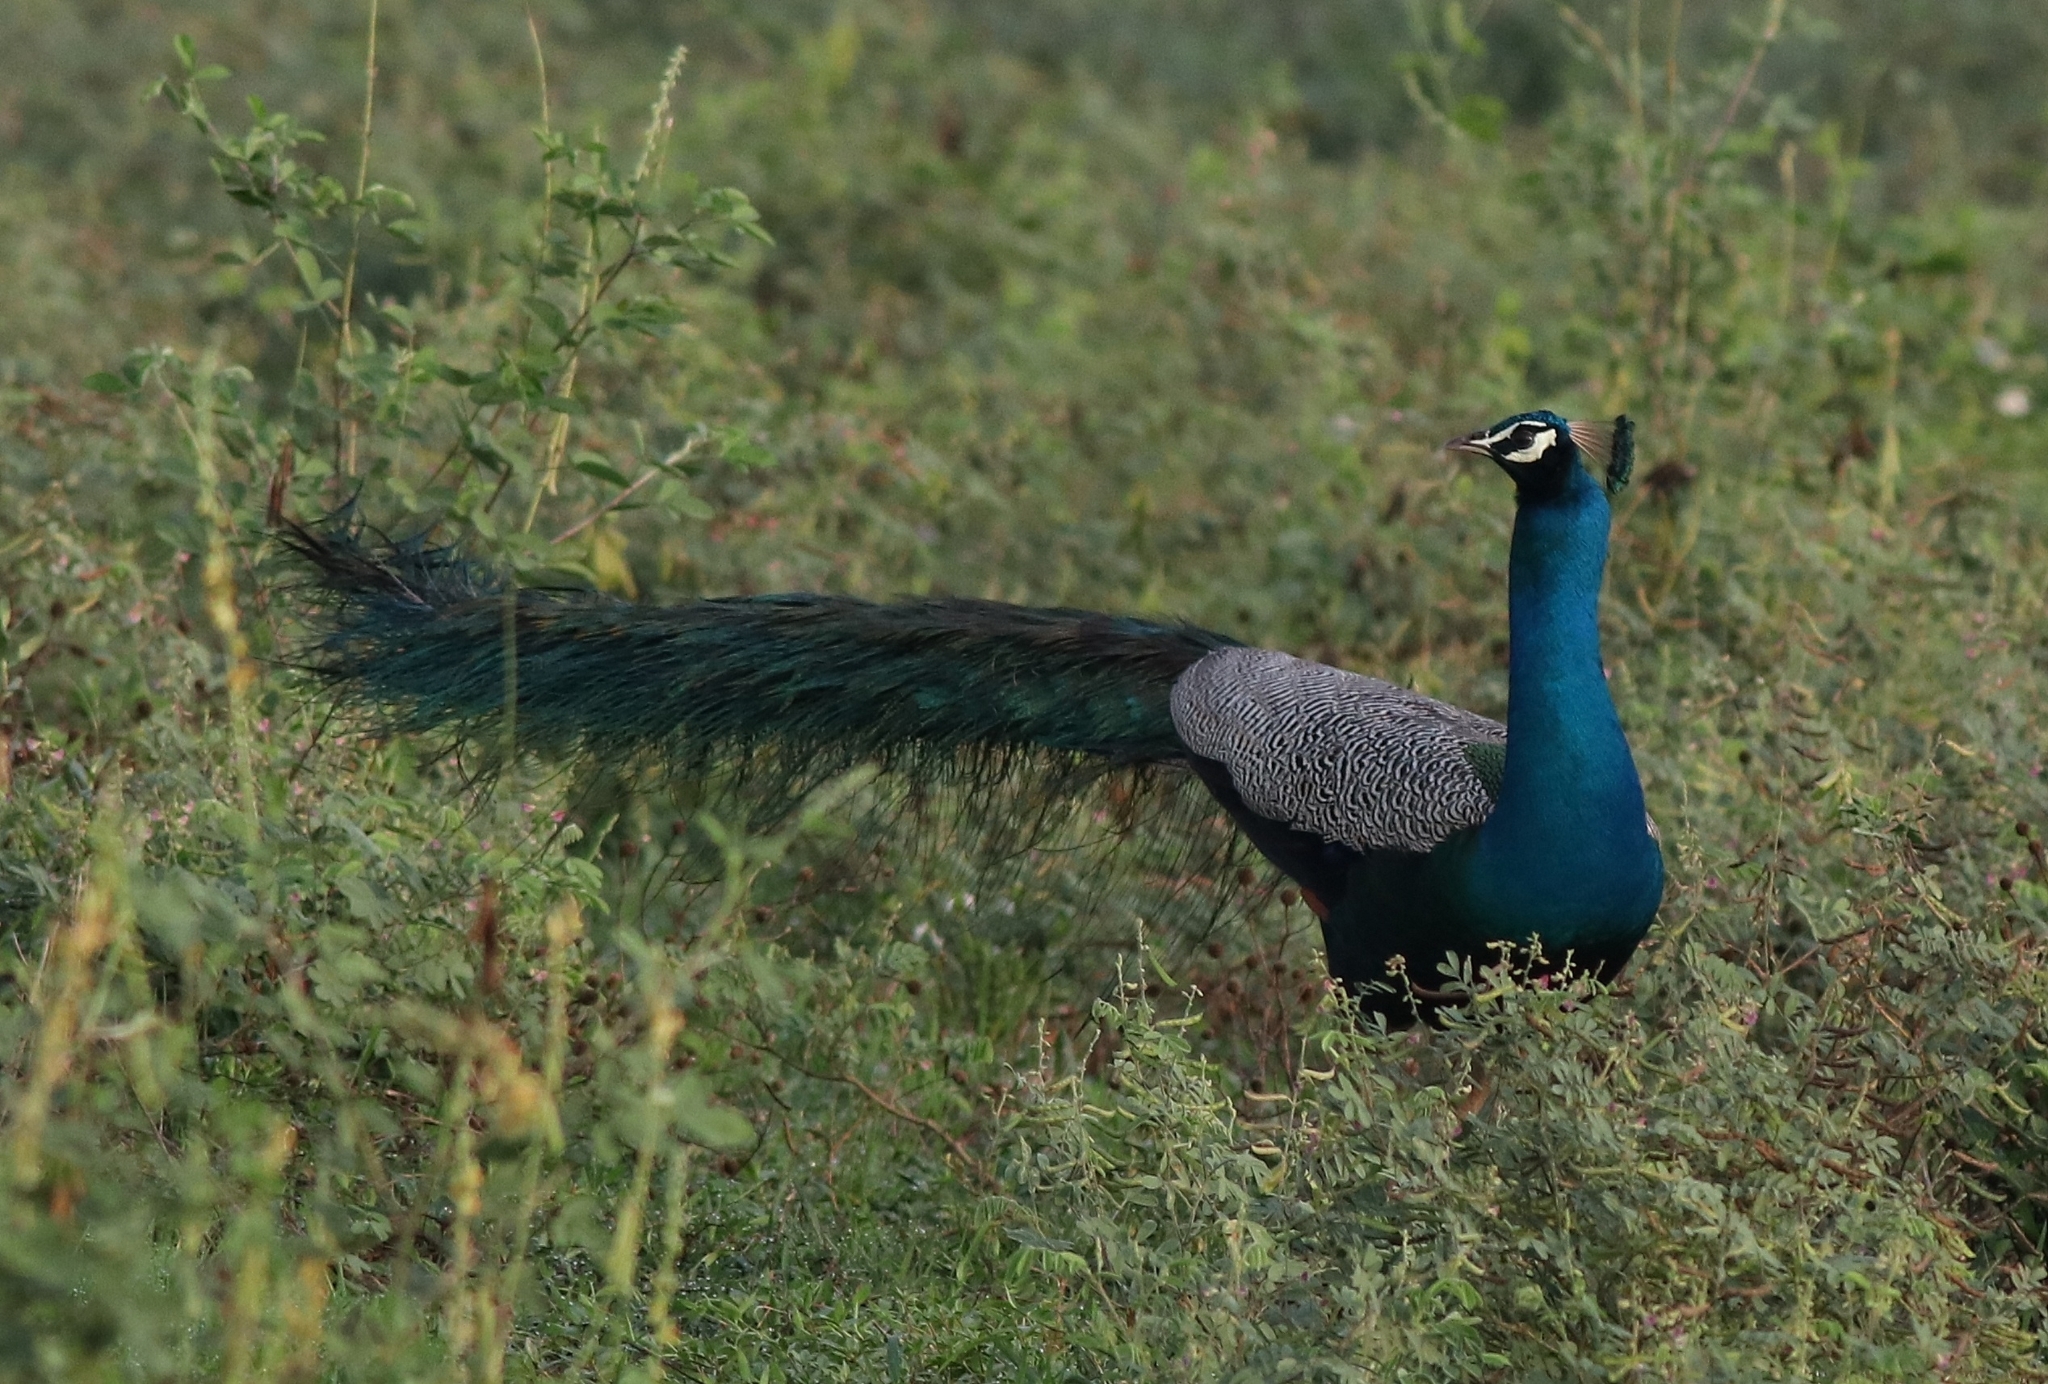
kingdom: Animalia
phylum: Chordata
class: Aves
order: Galliformes
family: Phasianidae
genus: Pavo
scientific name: Pavo cristatus
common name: Indian peafowl
